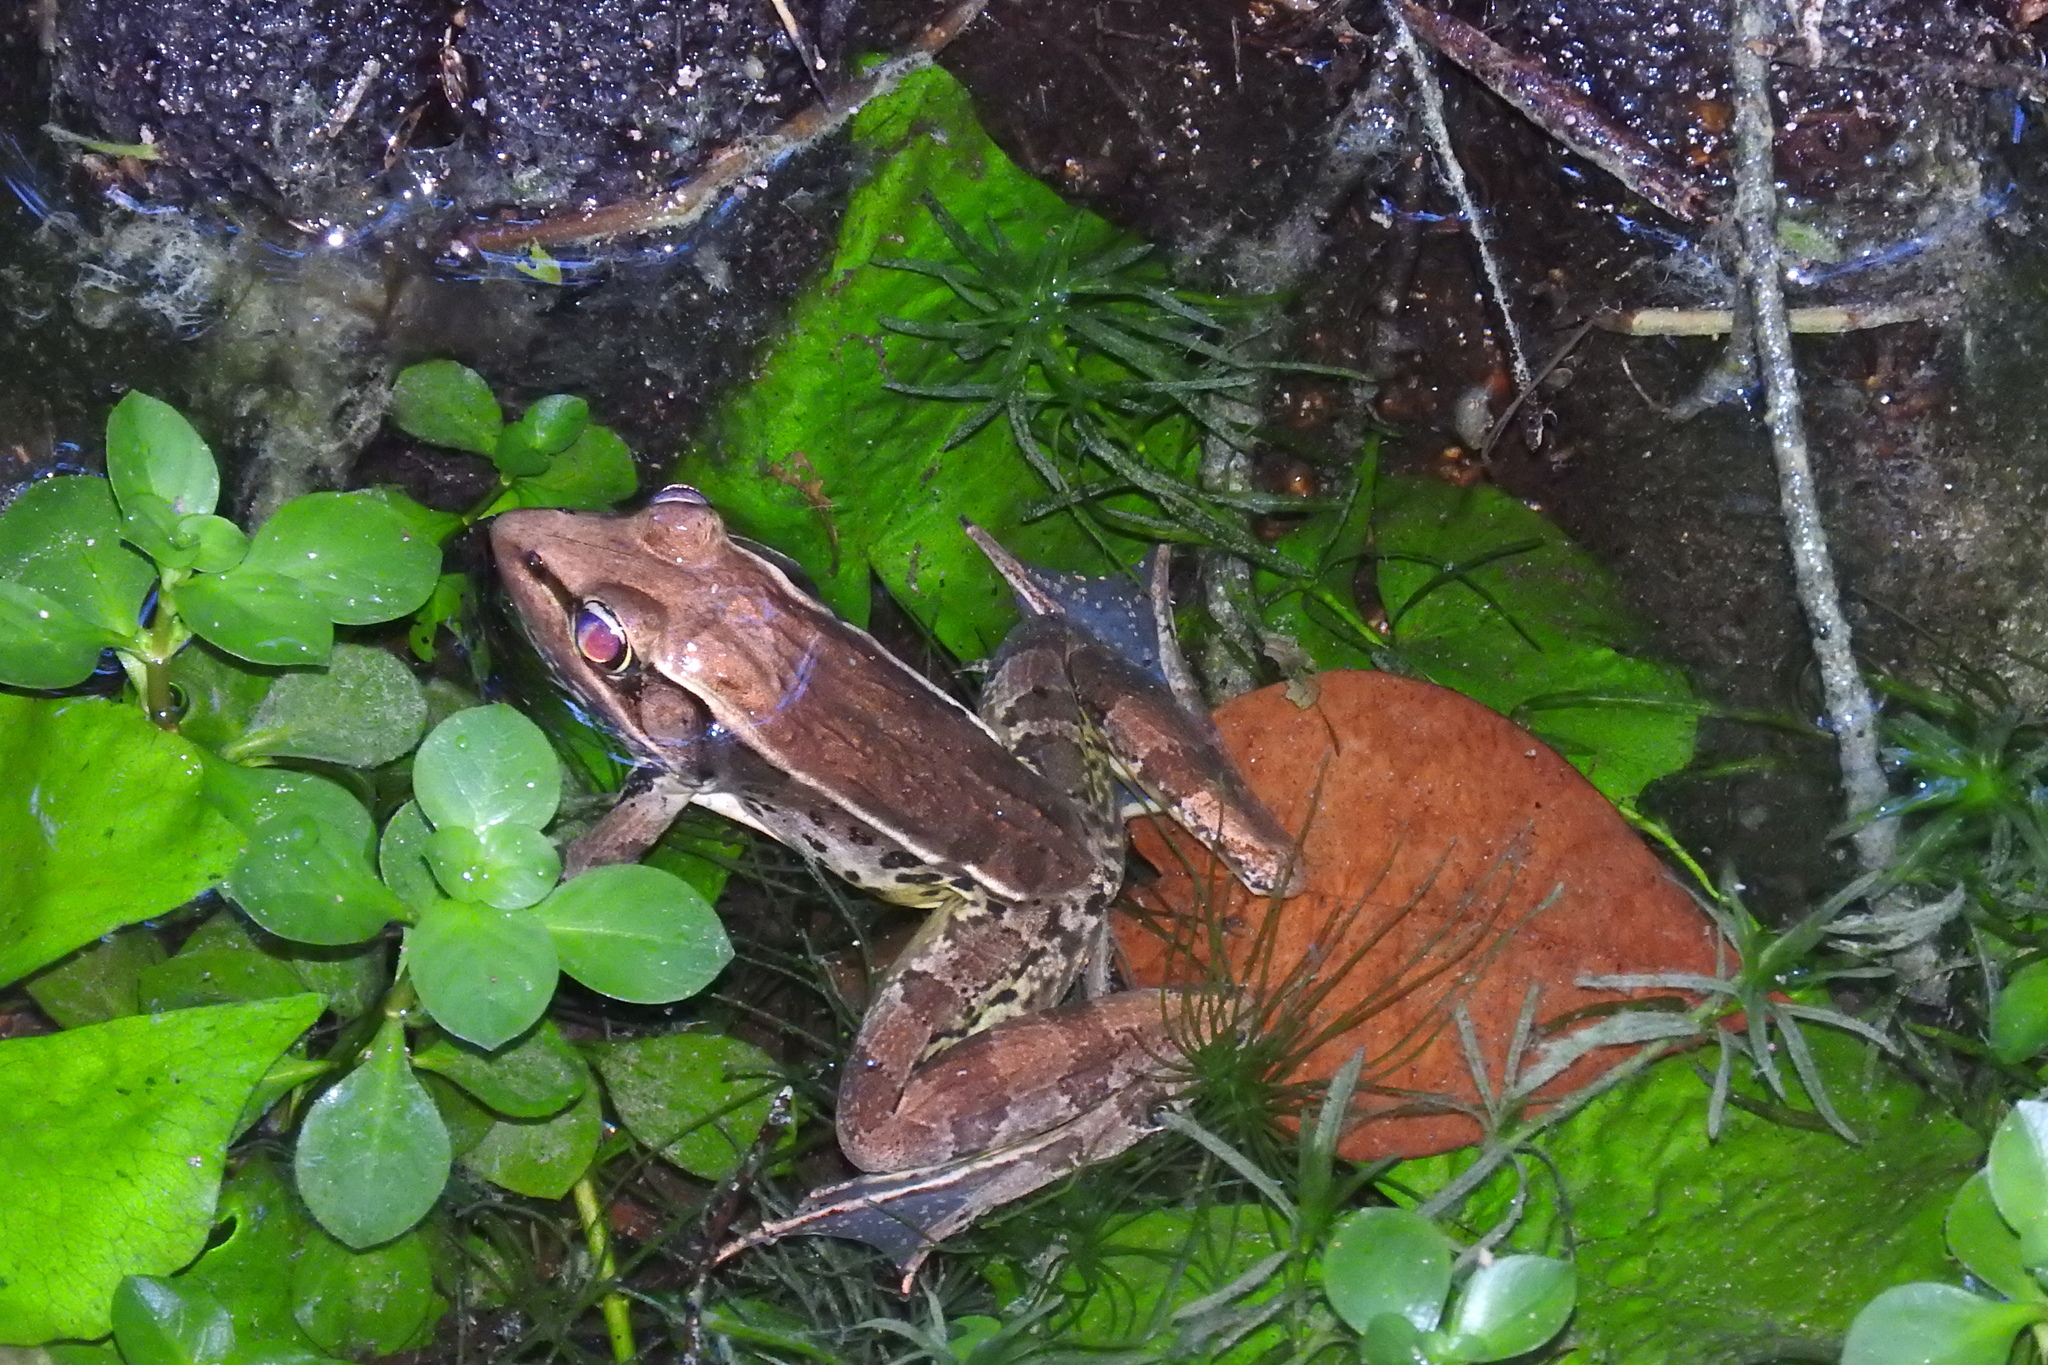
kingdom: Animalia
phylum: Chordata
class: Amphibia
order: Anura
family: Ranidae
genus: Lithobates
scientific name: Lithobates brownorum
